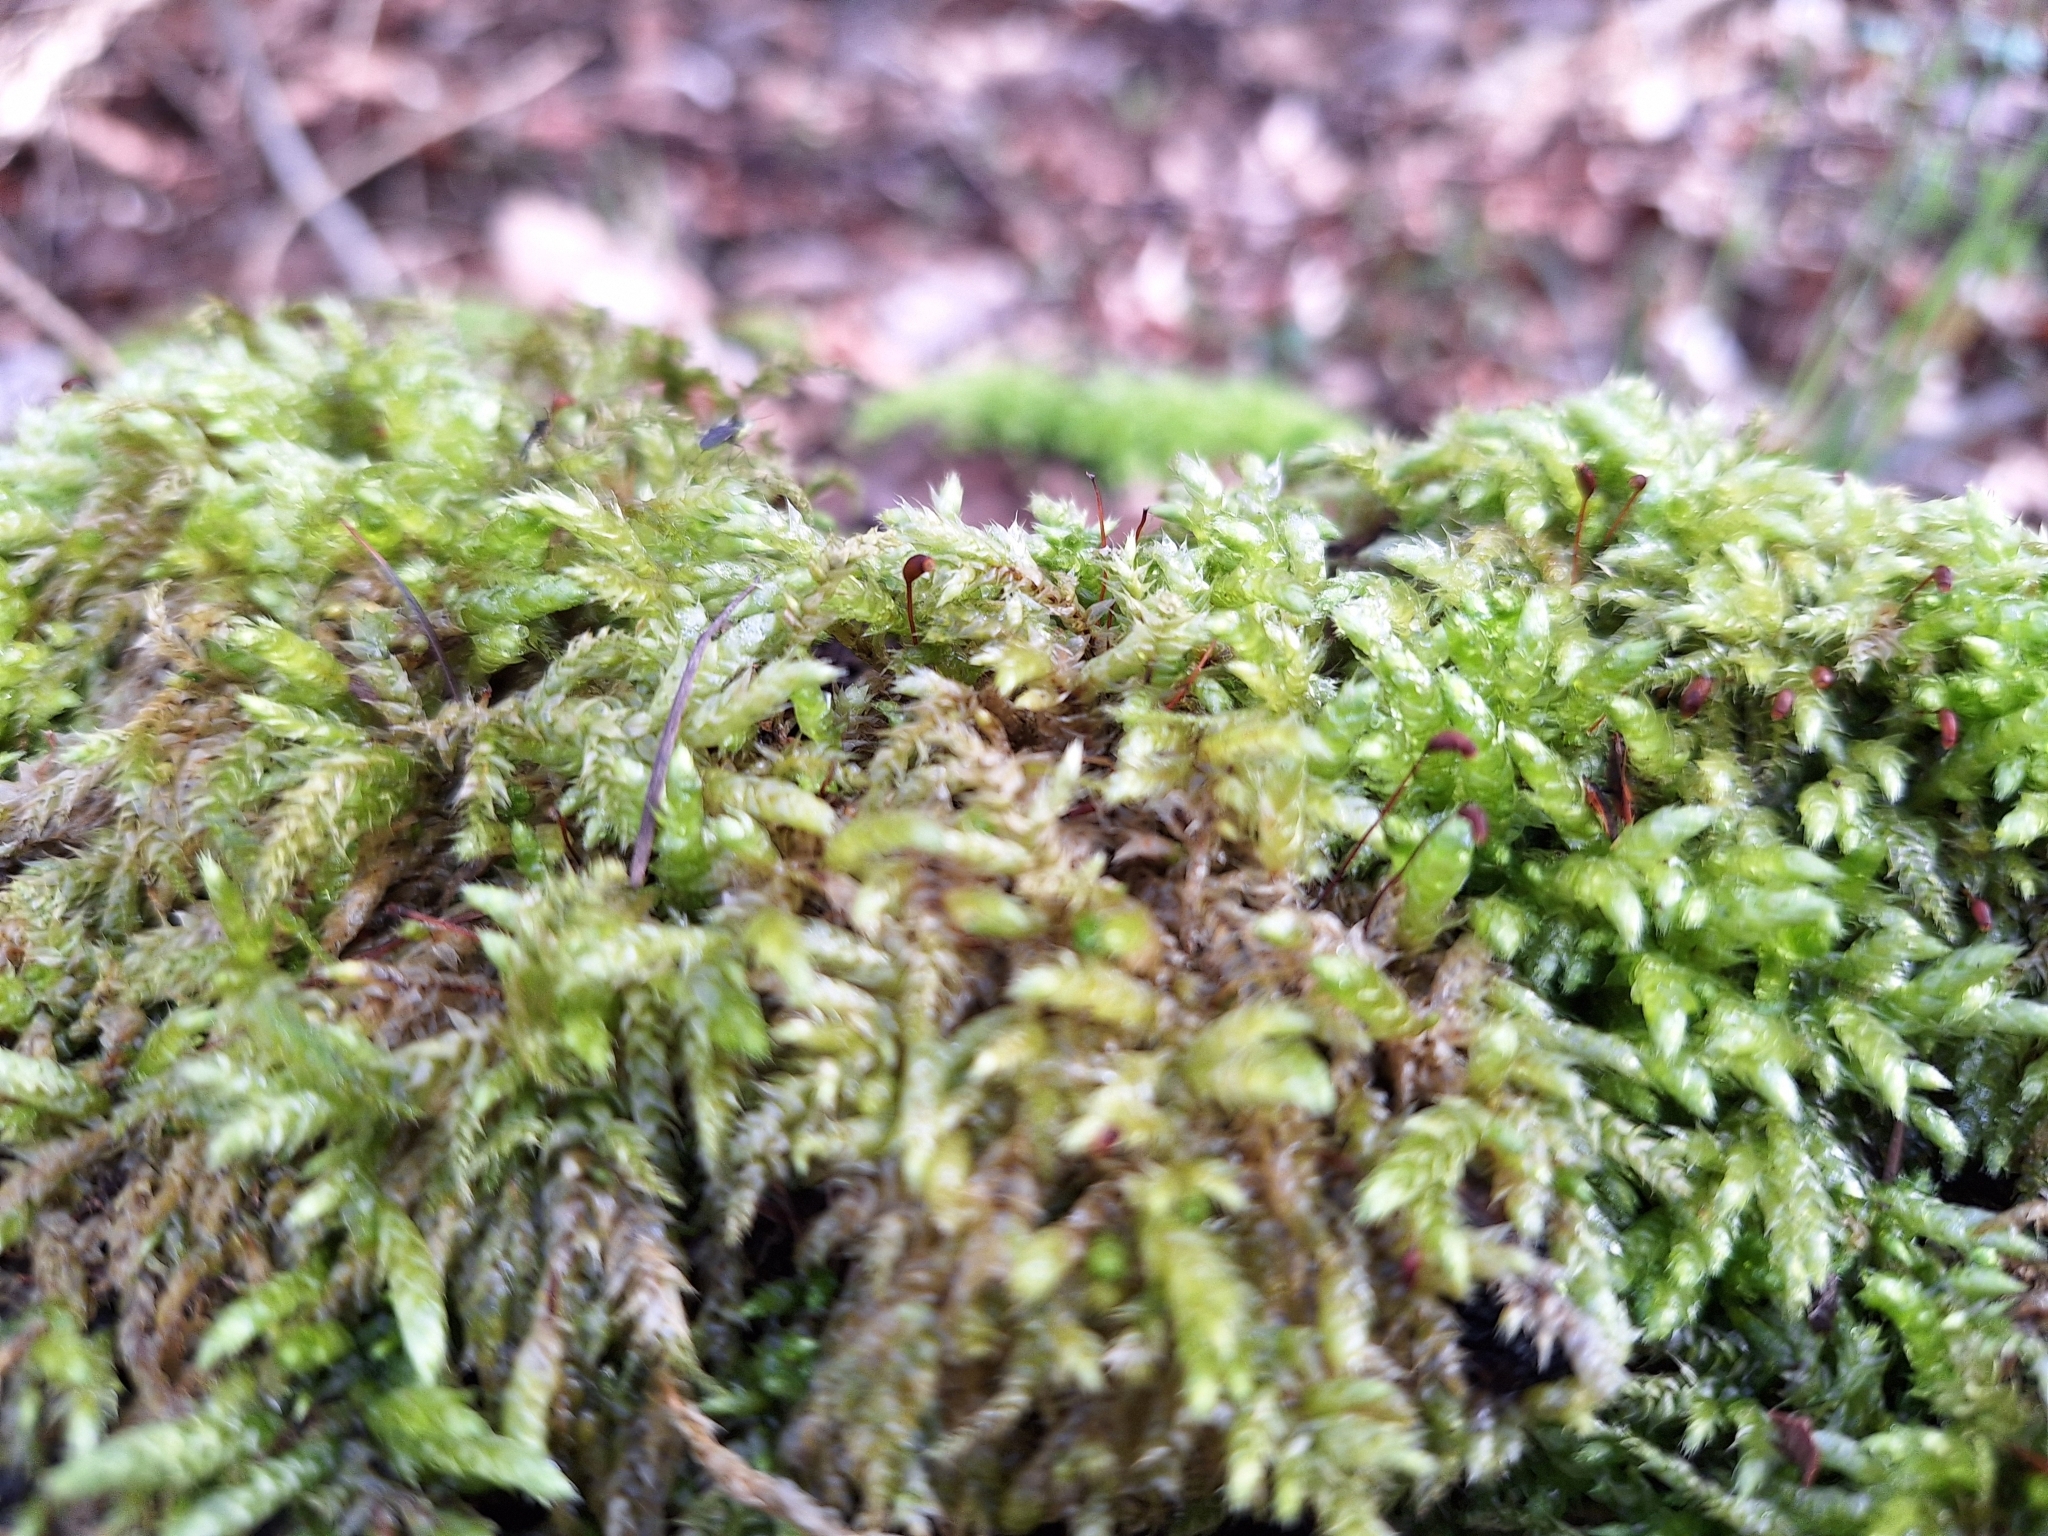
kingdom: Plantae
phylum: Bryophyta
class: Bryopsida
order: Hypnales
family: Brachytheciaceae
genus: Brachythecium
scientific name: Brachythecium rutabulum
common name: Rough-stalked feather-moss
